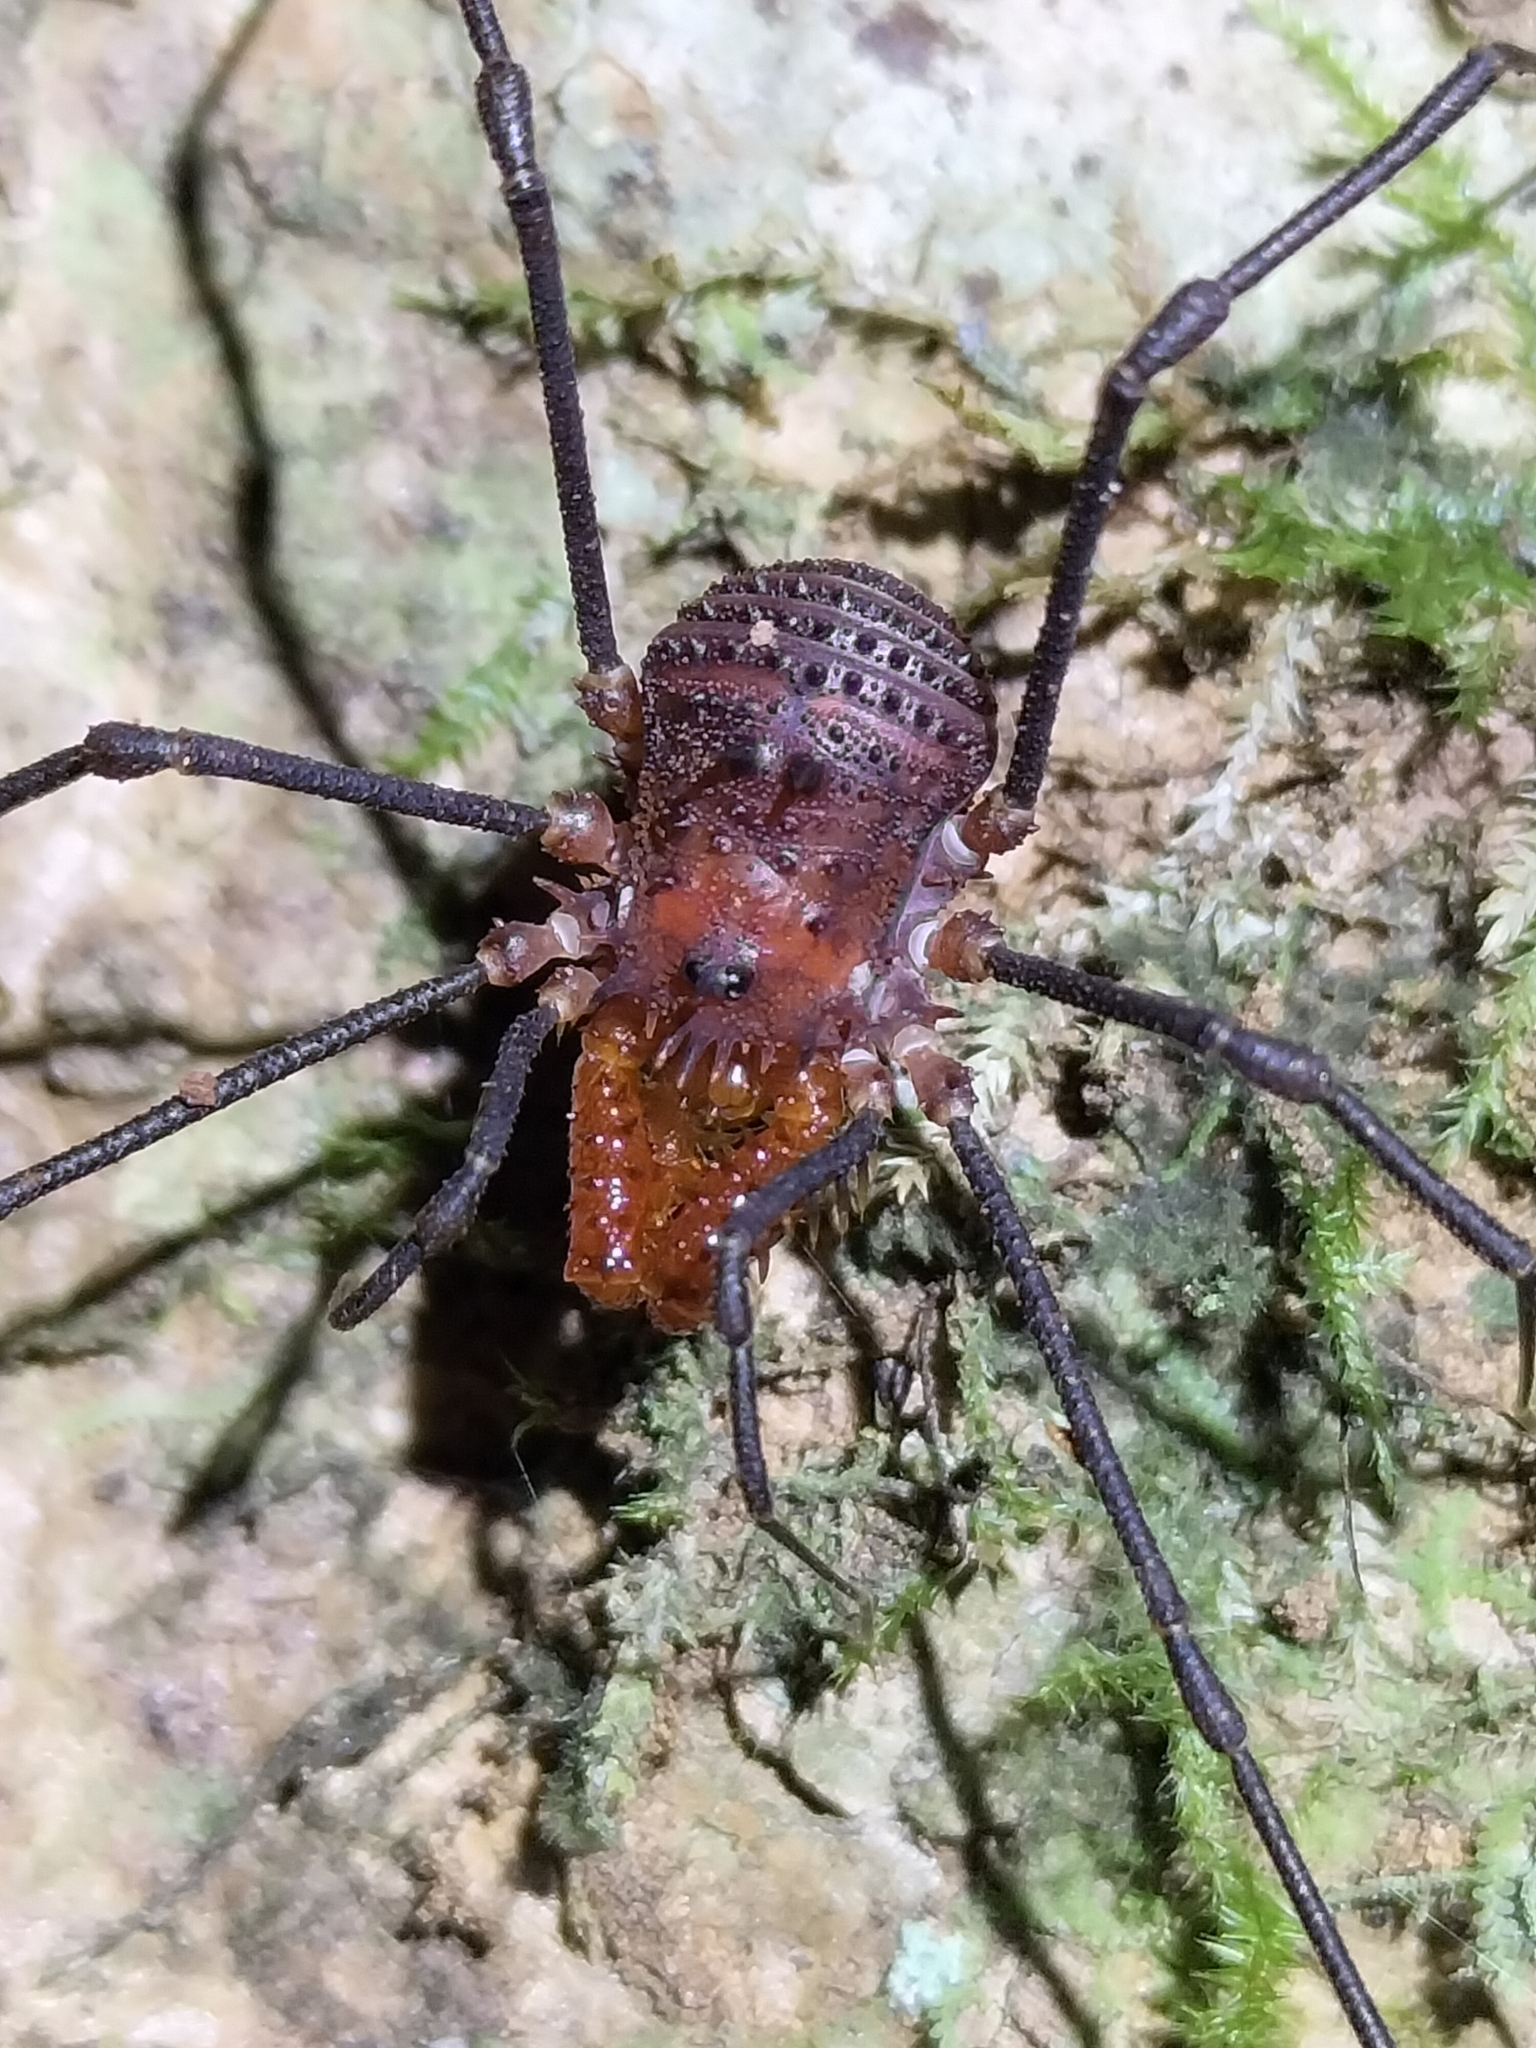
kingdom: Animalia
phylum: Arthropoda
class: Arachnida
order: Opiliones
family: Triaenonychidae
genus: Heteronuncia
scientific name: Heteronuncia robusta
